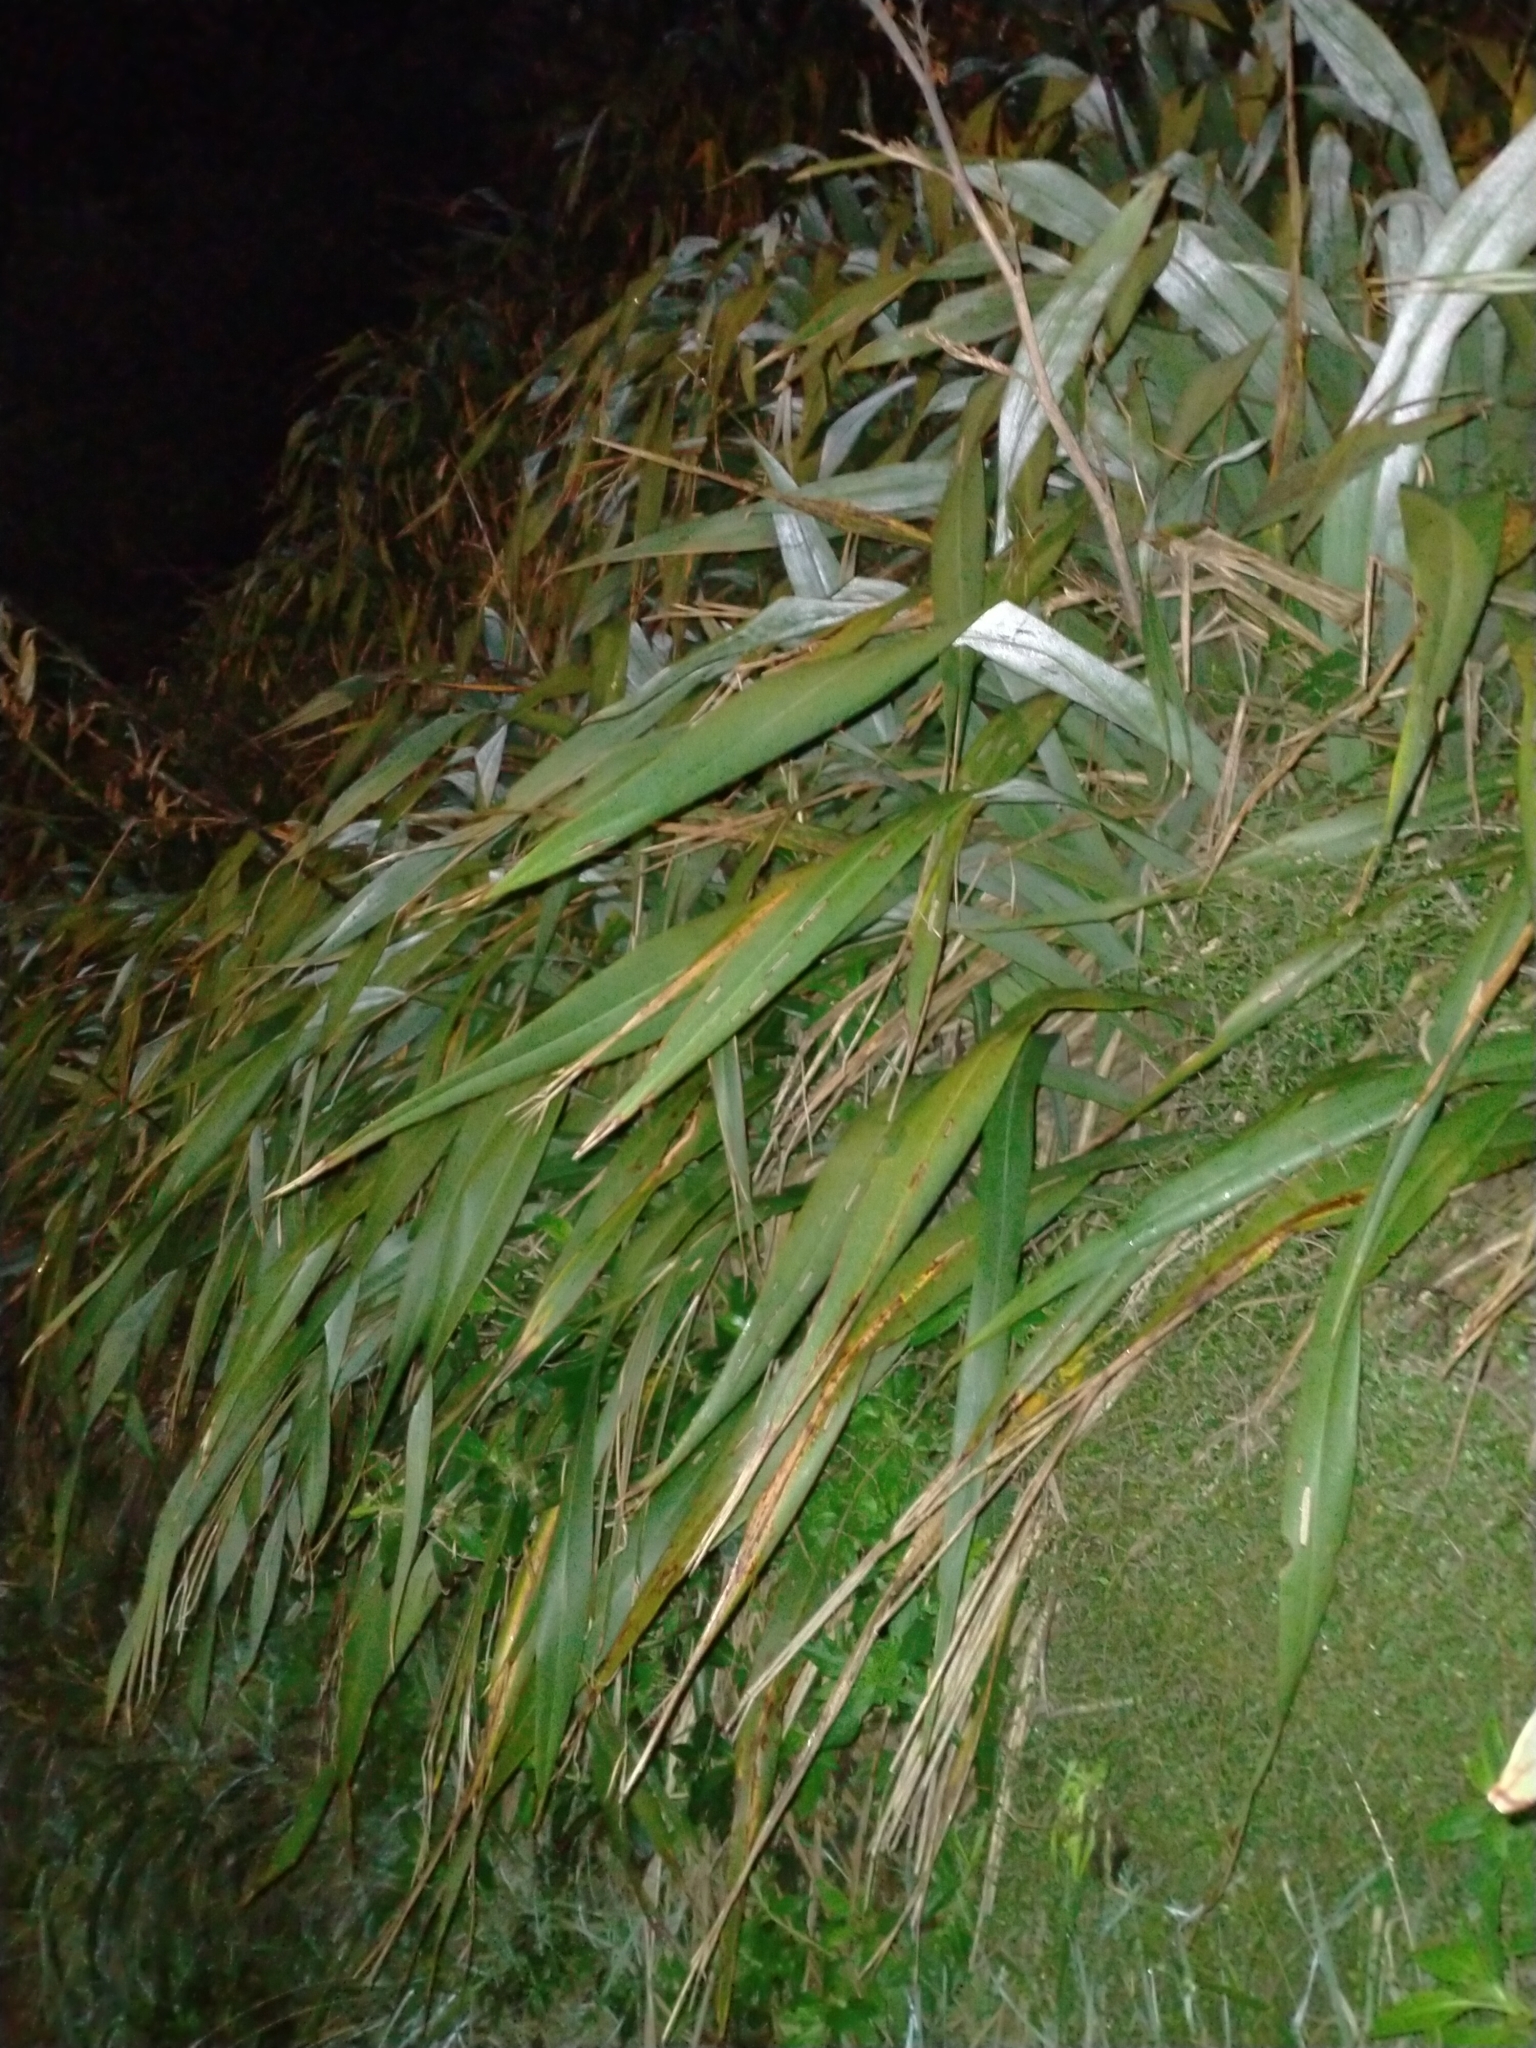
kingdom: Plantae
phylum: Tracheophyta
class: Liliopsida
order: Asparagales
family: Asphodelaceae
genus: Phormium
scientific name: Phormium colensoi
